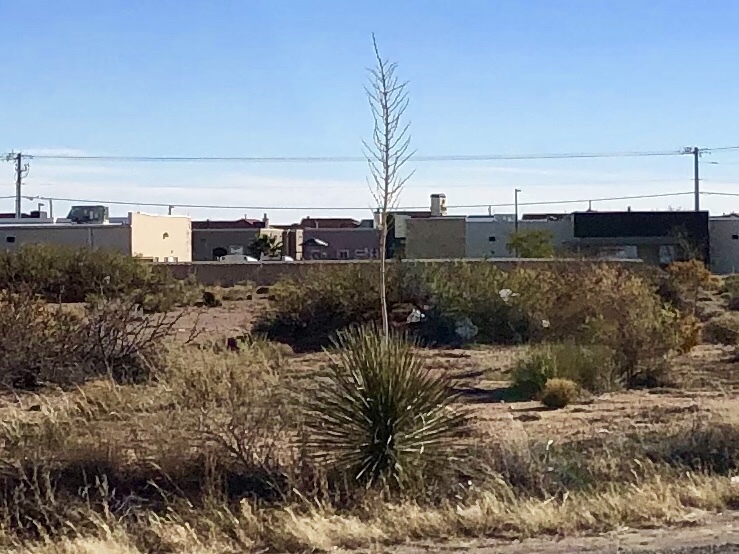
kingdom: Plantae
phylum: Tracheophyta
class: Liliopsida
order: Asparagales
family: Asparagaceae
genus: Yucca
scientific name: Yucca elata
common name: Palmella
